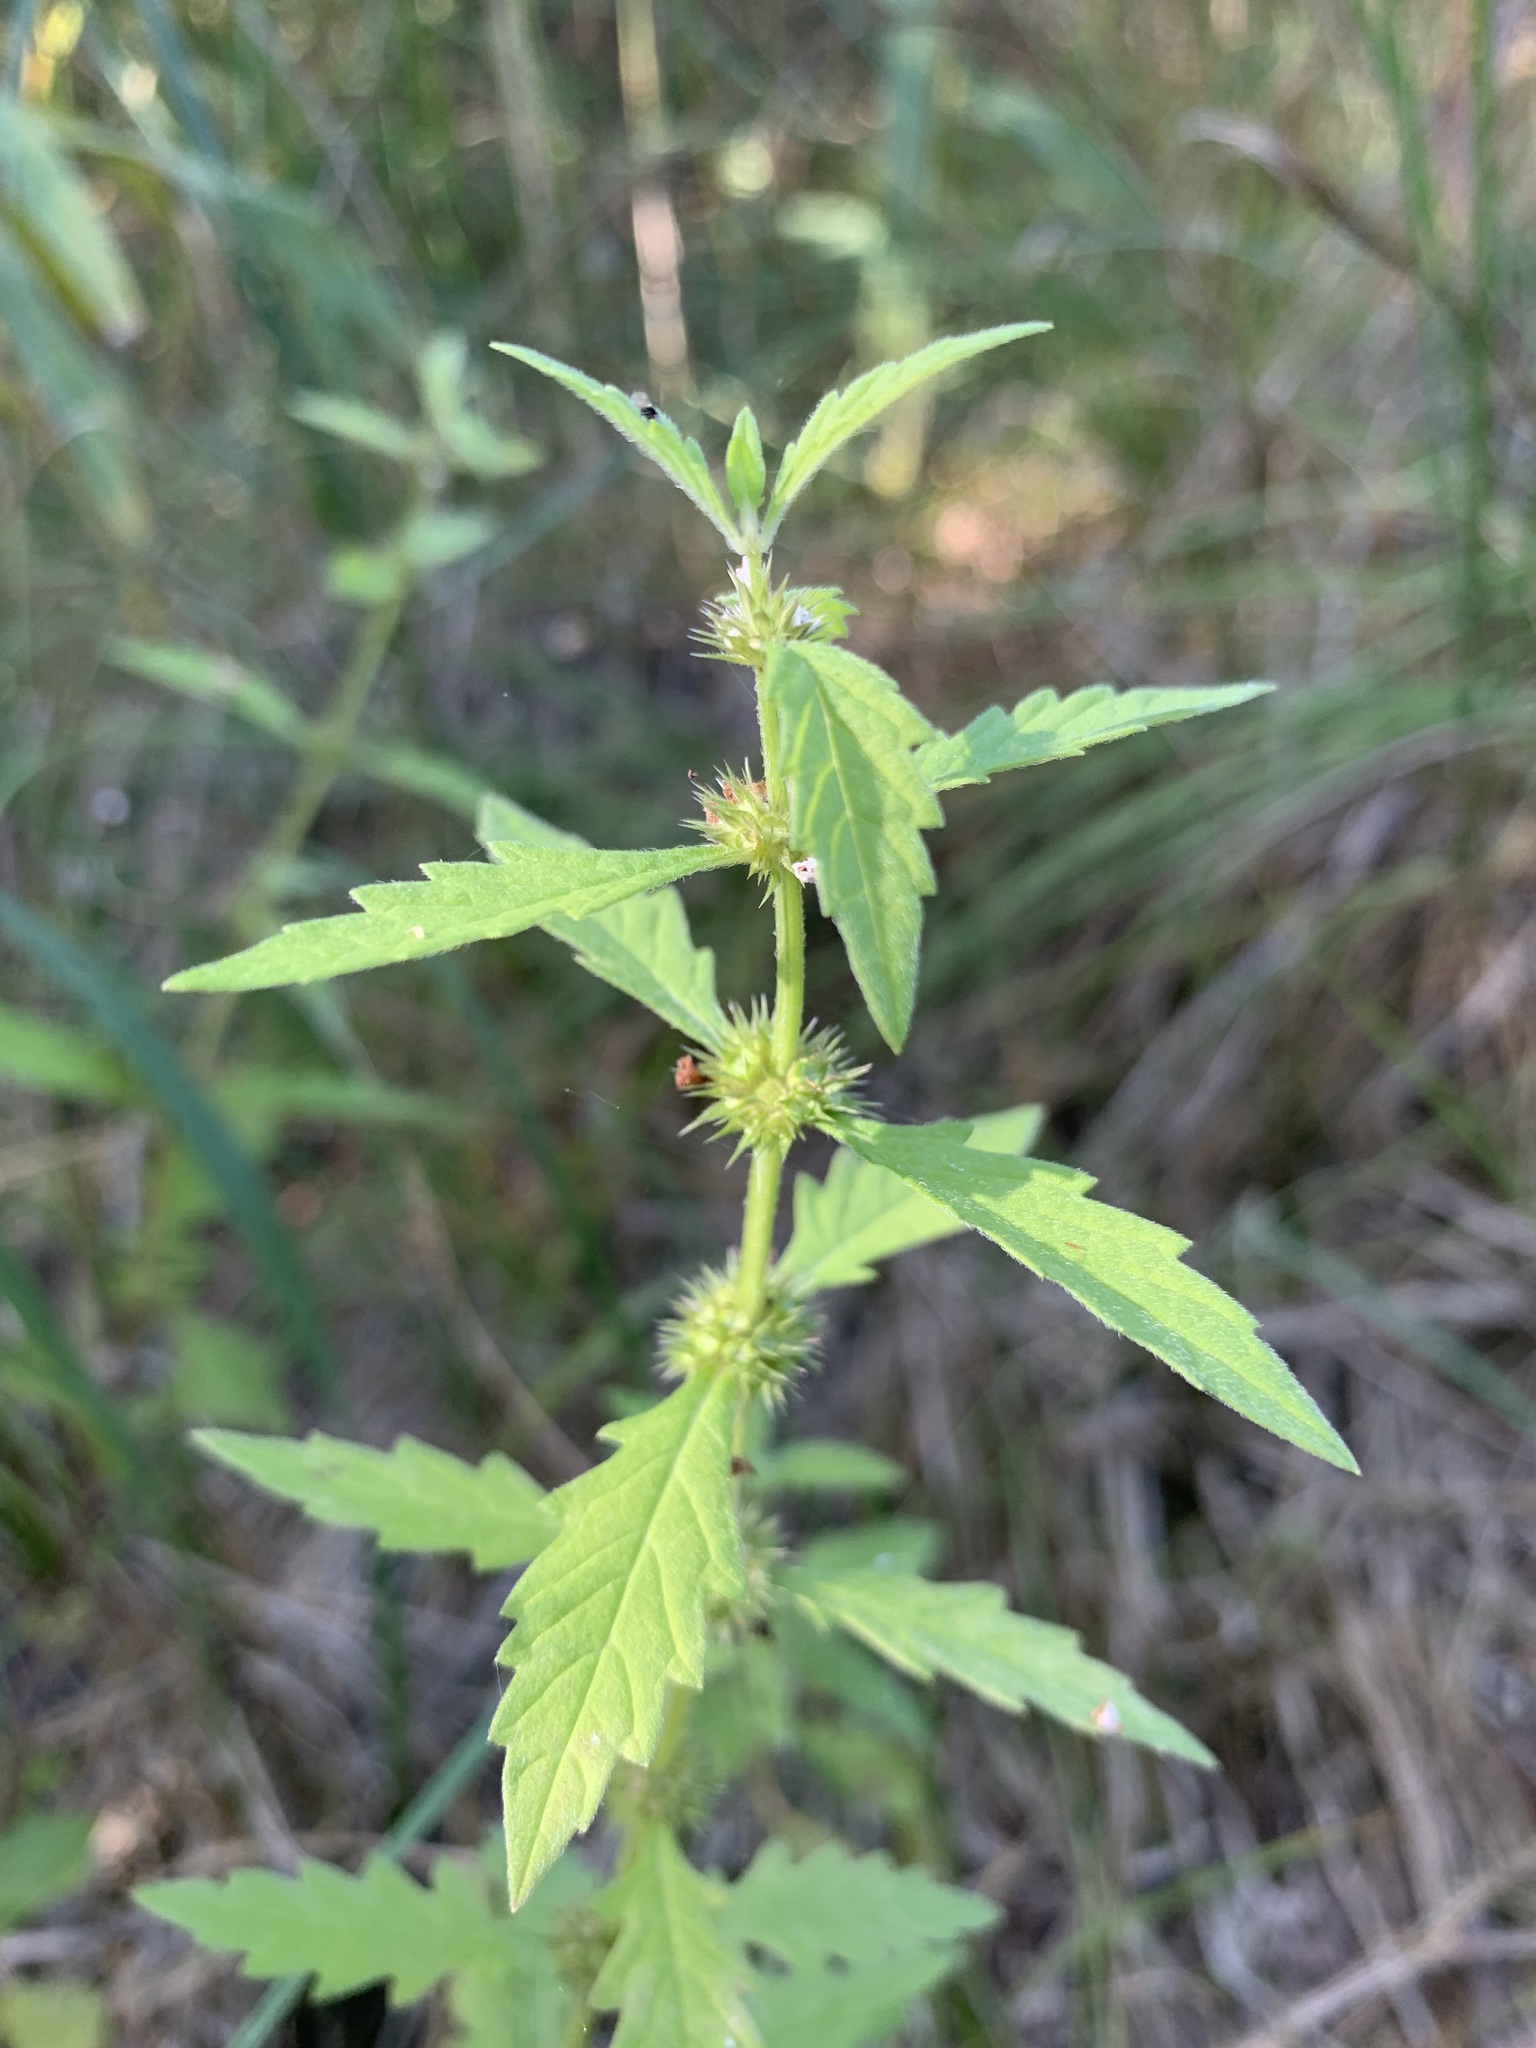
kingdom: Plantae
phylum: Tracheophyta
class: Magnoliopsida
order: Lamiales
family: Lamiaceae
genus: Lycopus
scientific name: Lycopus europaeus
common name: European bugleweed
